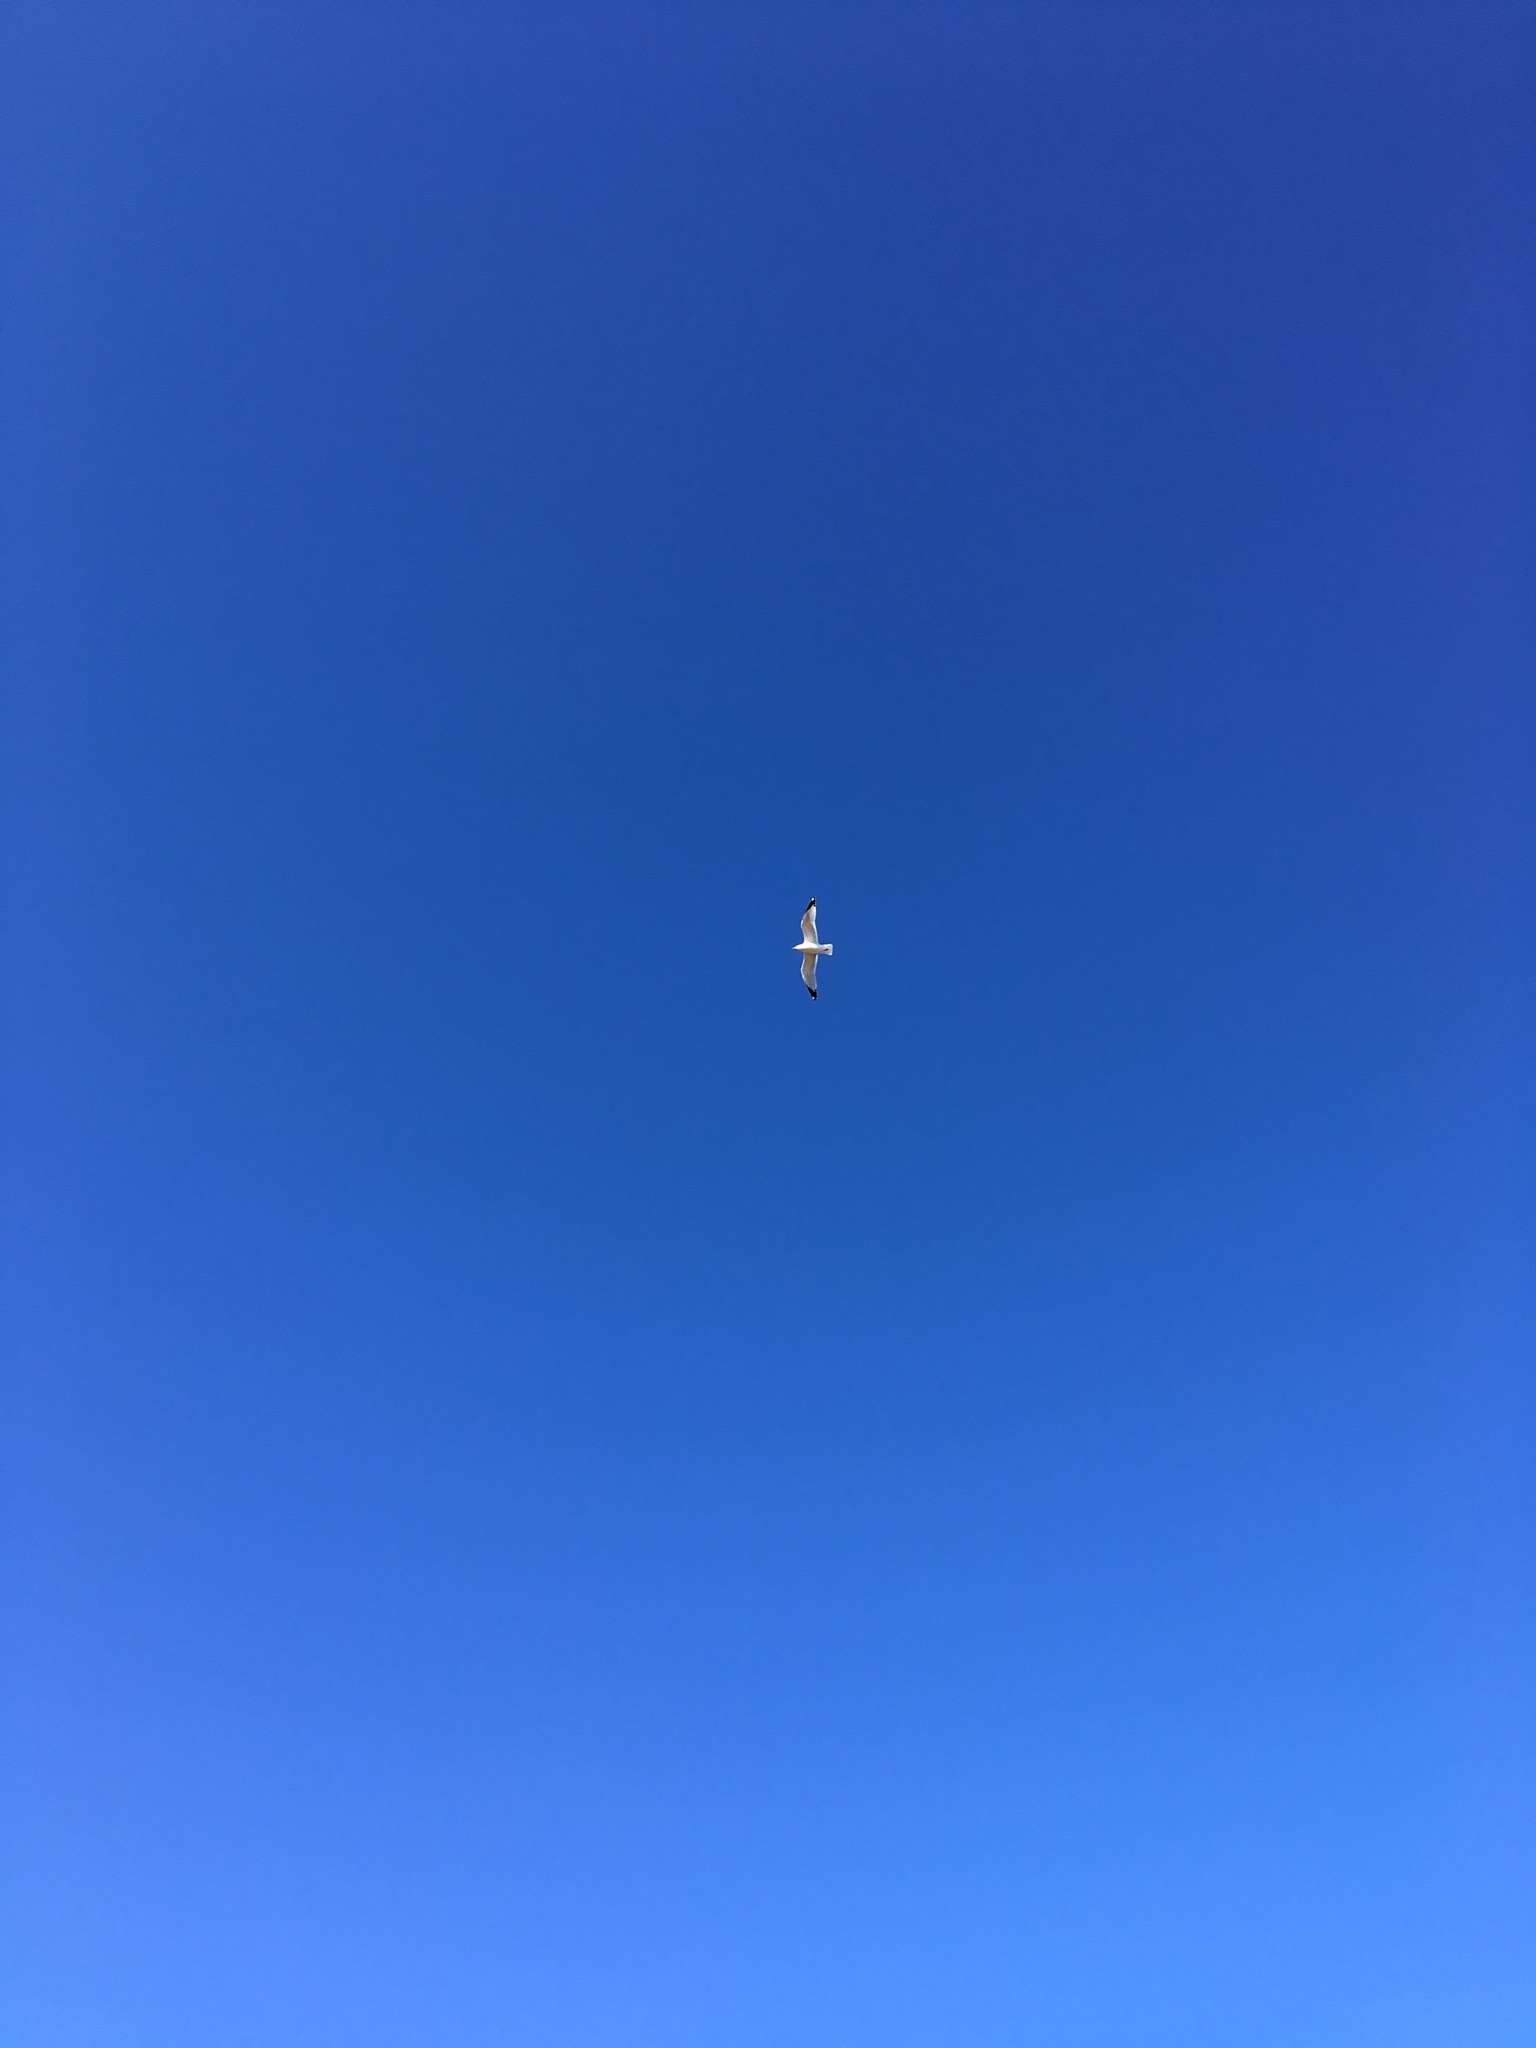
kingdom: Animalia
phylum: Chordata
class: Aves
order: Charadriiformes
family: Laridae
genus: Larus
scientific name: Larus delawarensis
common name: Ring-billed gull
